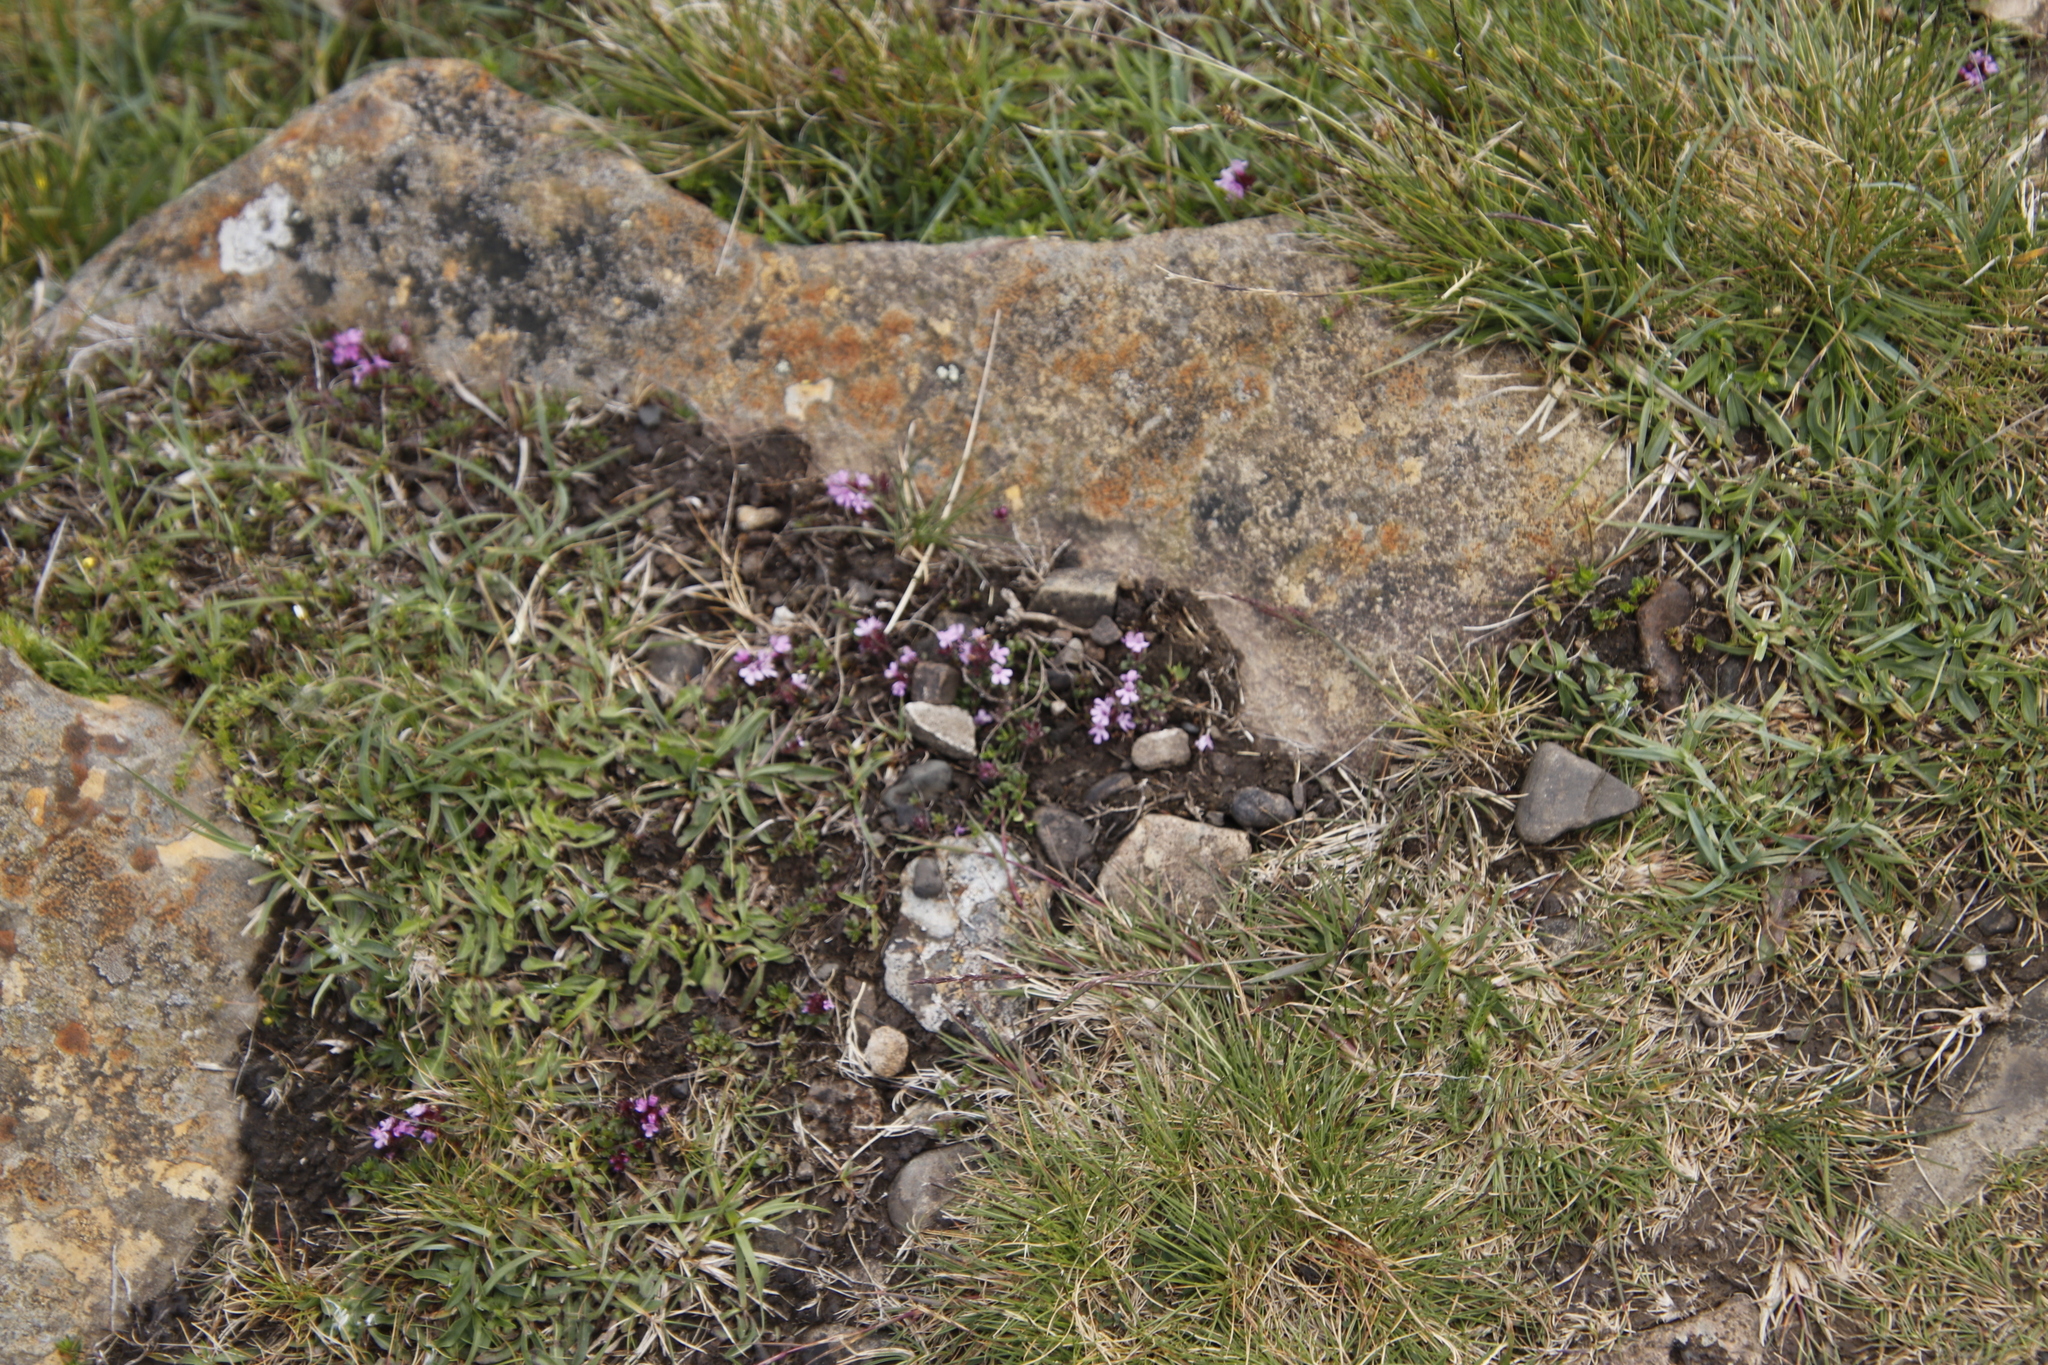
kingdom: Plantae
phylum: Tracheophyta
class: Magnoliopsida
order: Lamiales
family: Lamiaceae
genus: Thymus
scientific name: Thymus praecox
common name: Wild thyme
